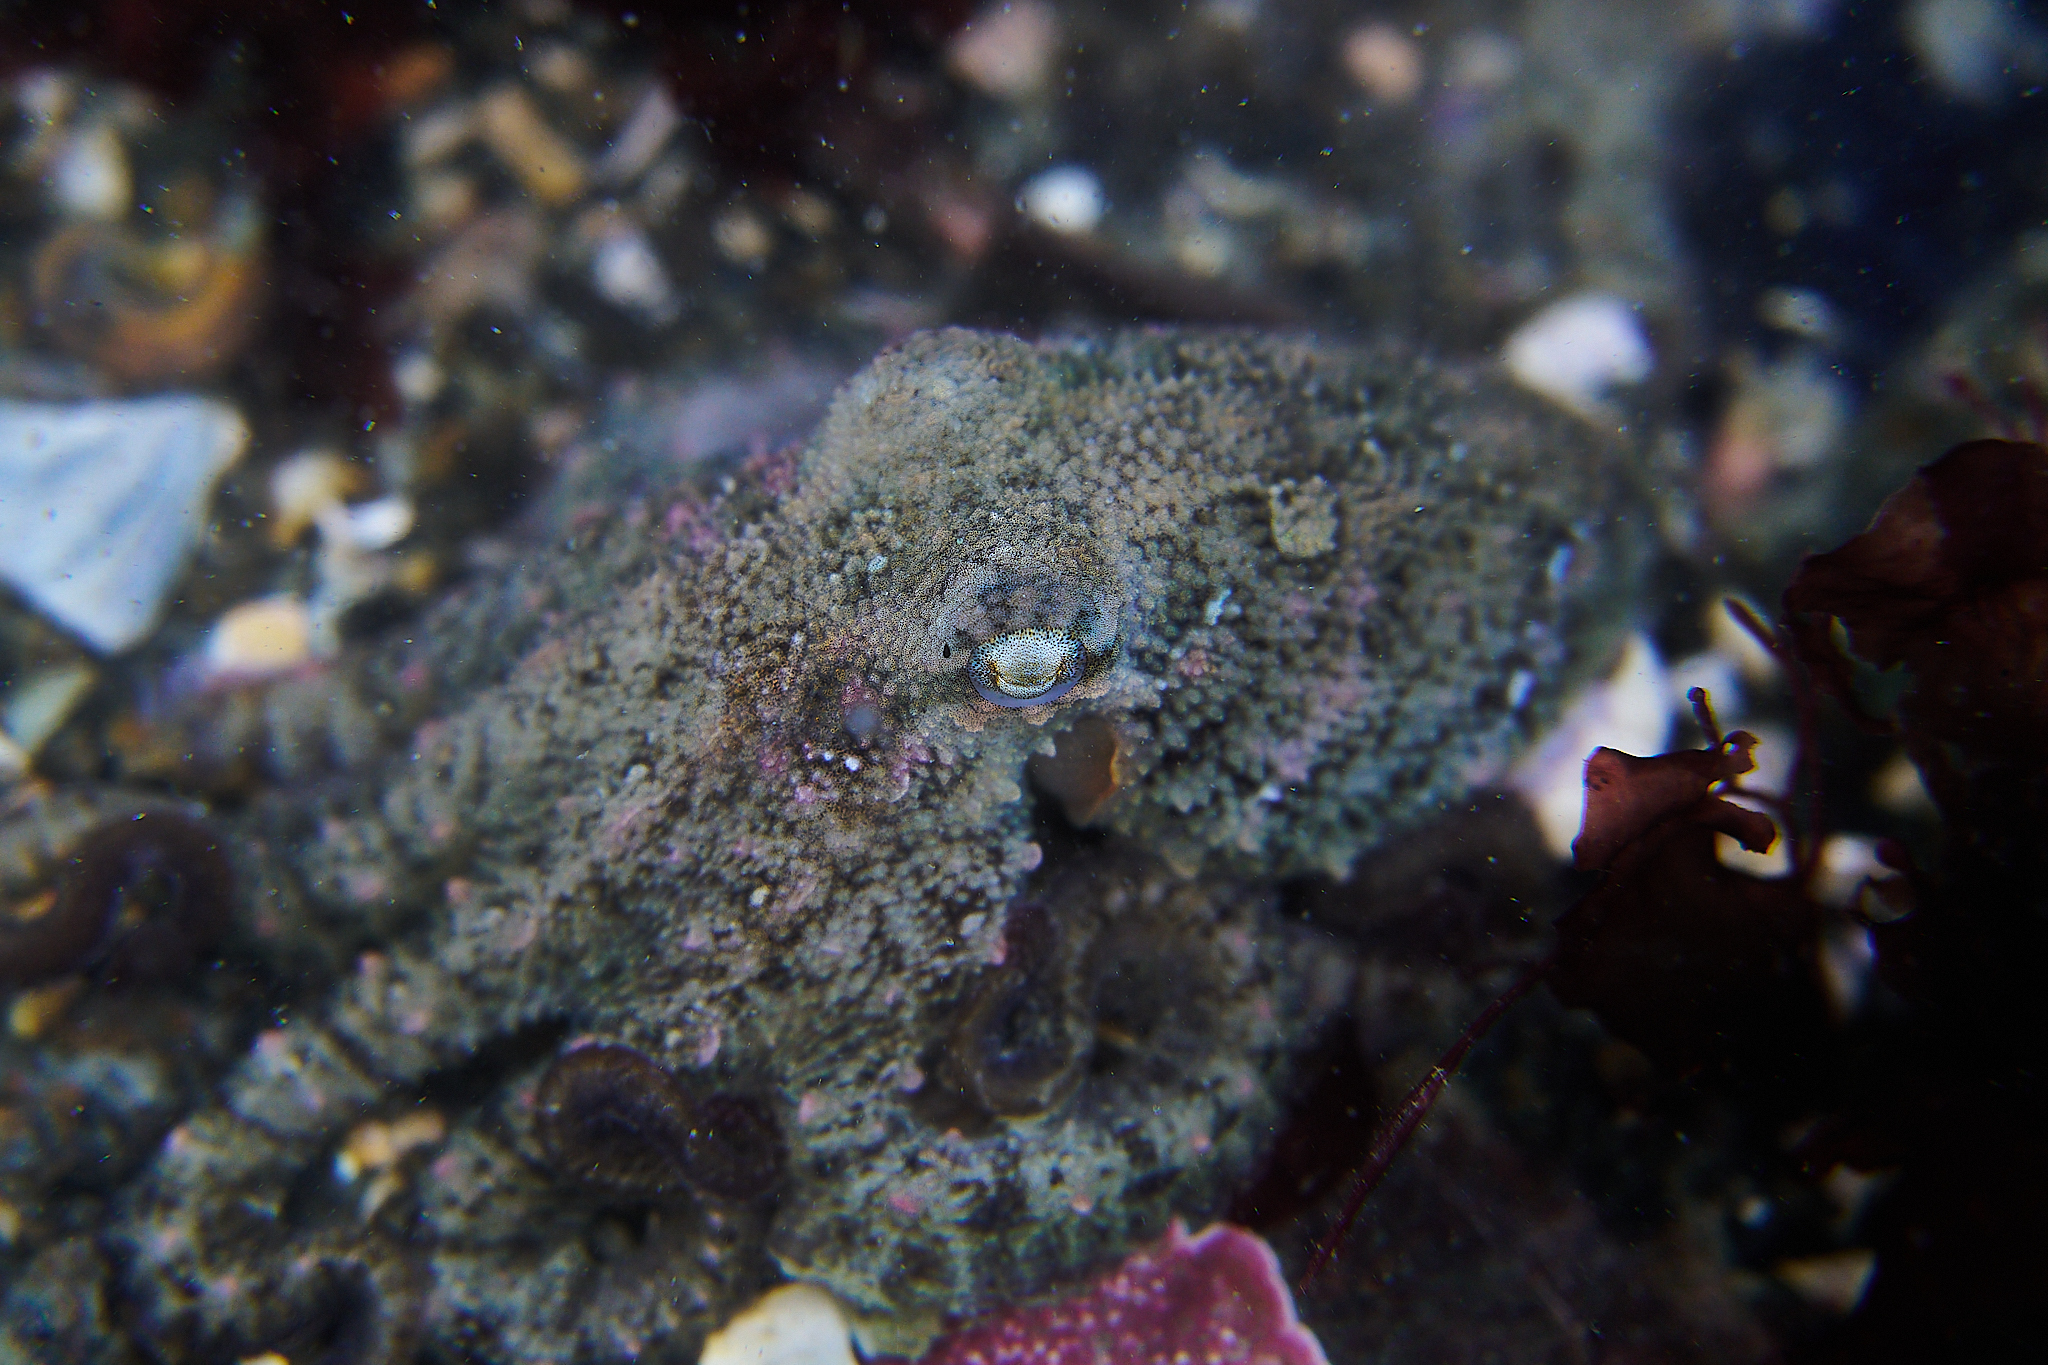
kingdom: Animalia
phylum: Mollusca
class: Cephalopoda
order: Octopoda
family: Octopodidae
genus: Robsonella
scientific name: Robsonella huttoni
